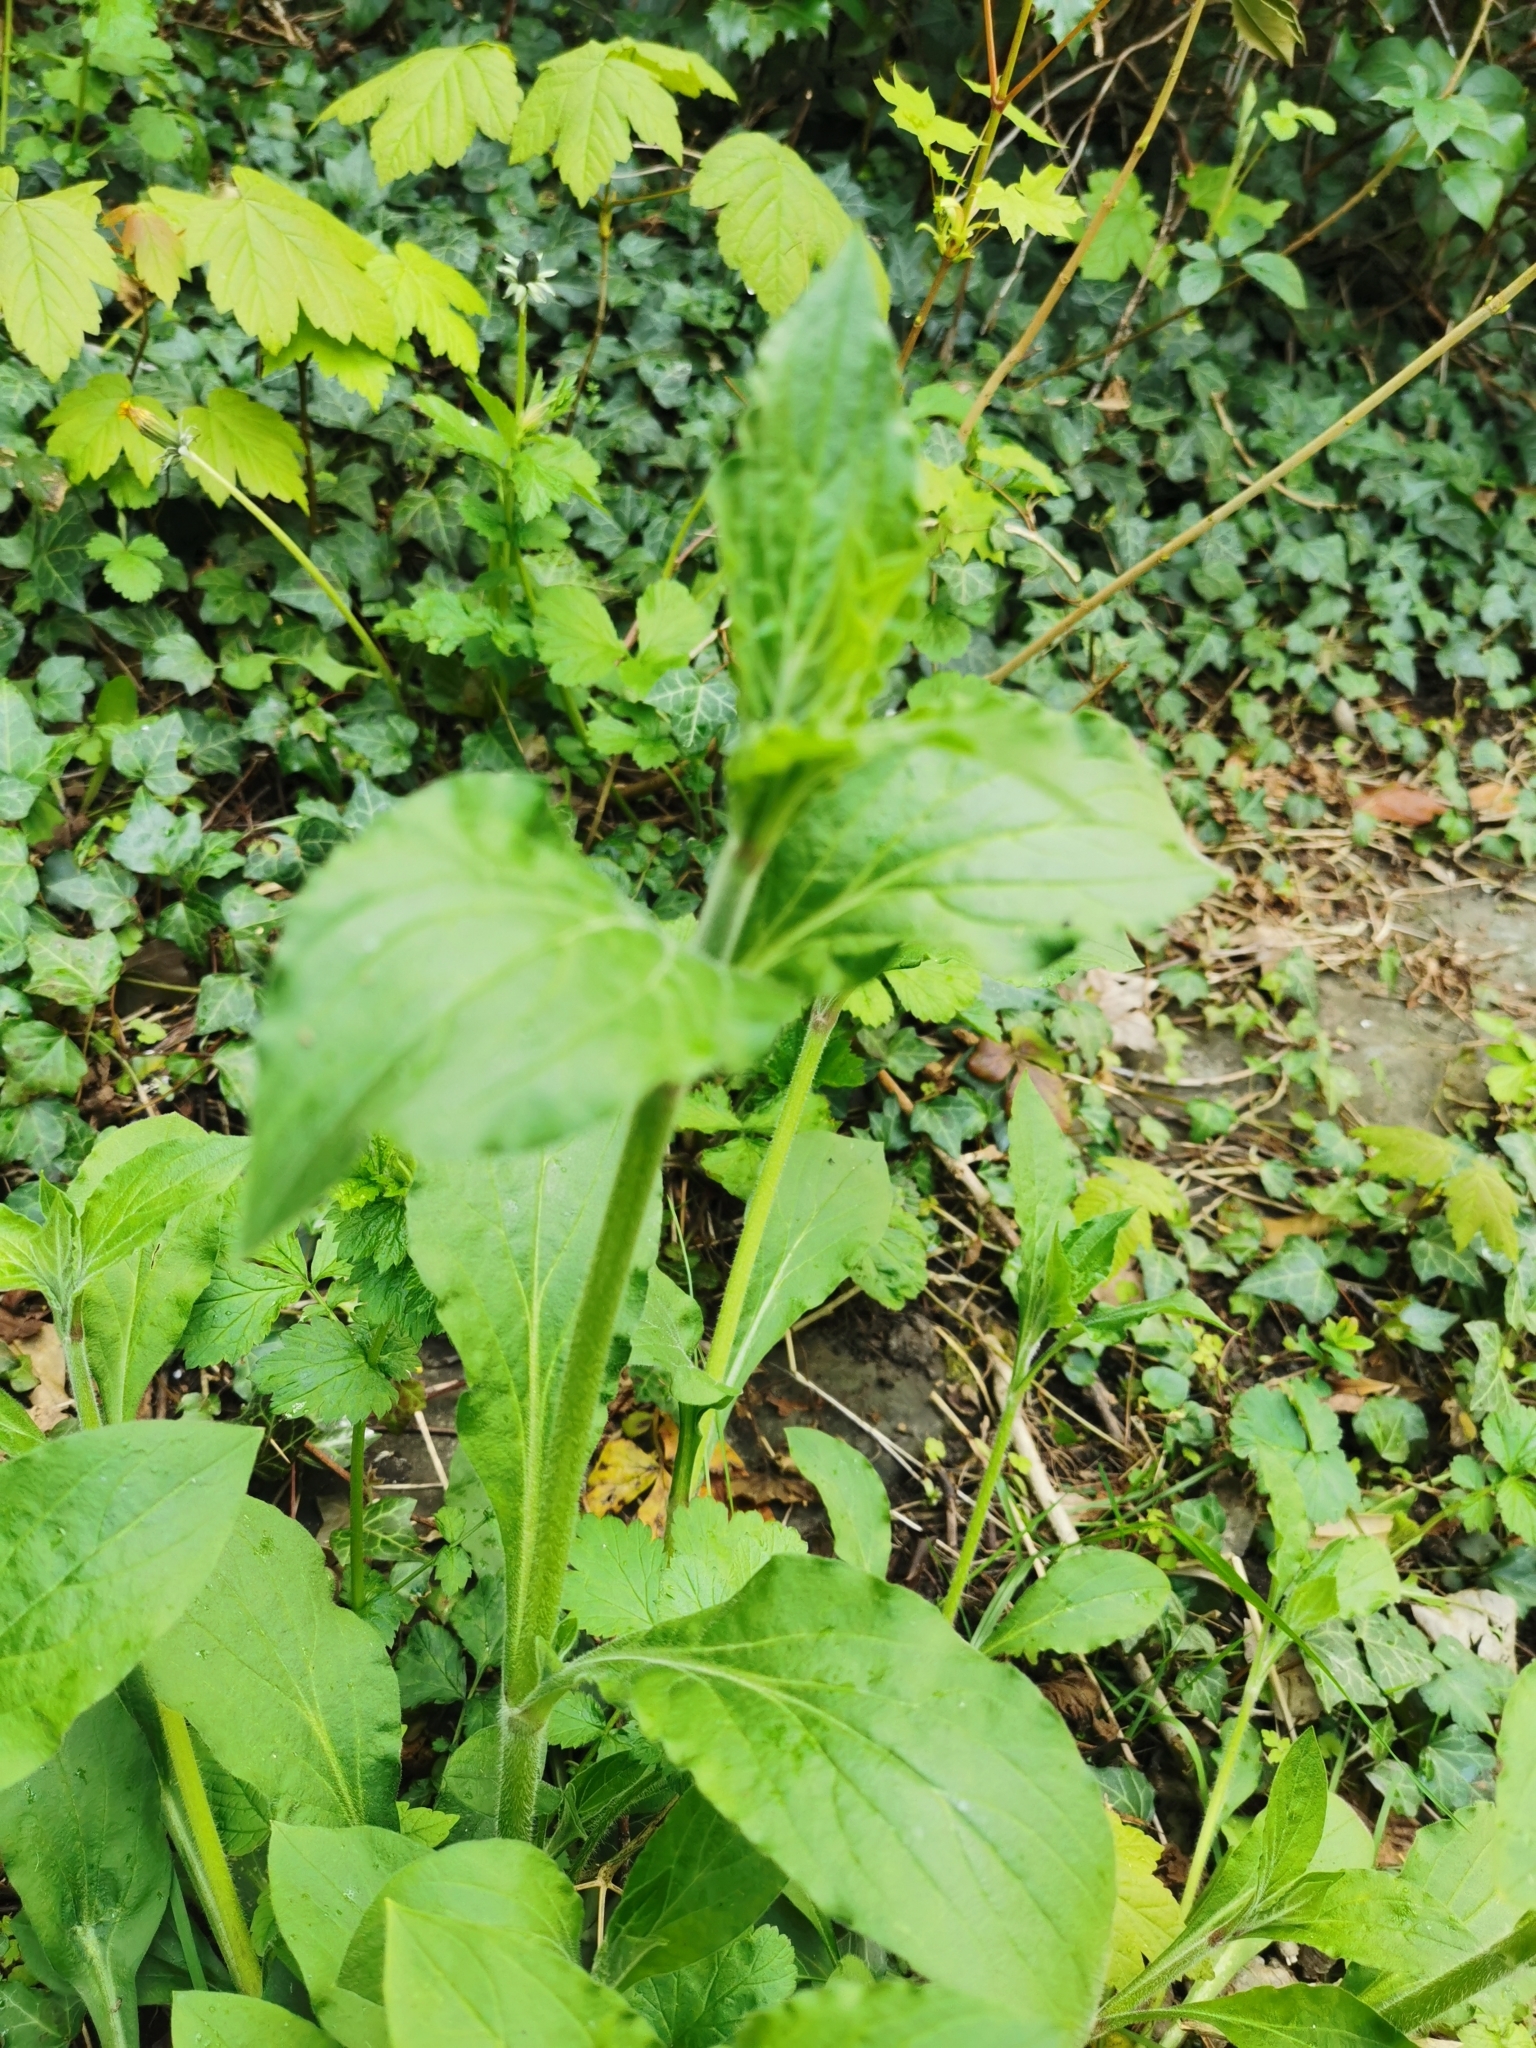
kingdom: Plantae
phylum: Tracheophyta
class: Magnoliopsida
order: Caryophyllales
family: Caryophyllaceae
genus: Silene
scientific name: Silene dioica
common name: Red campion
